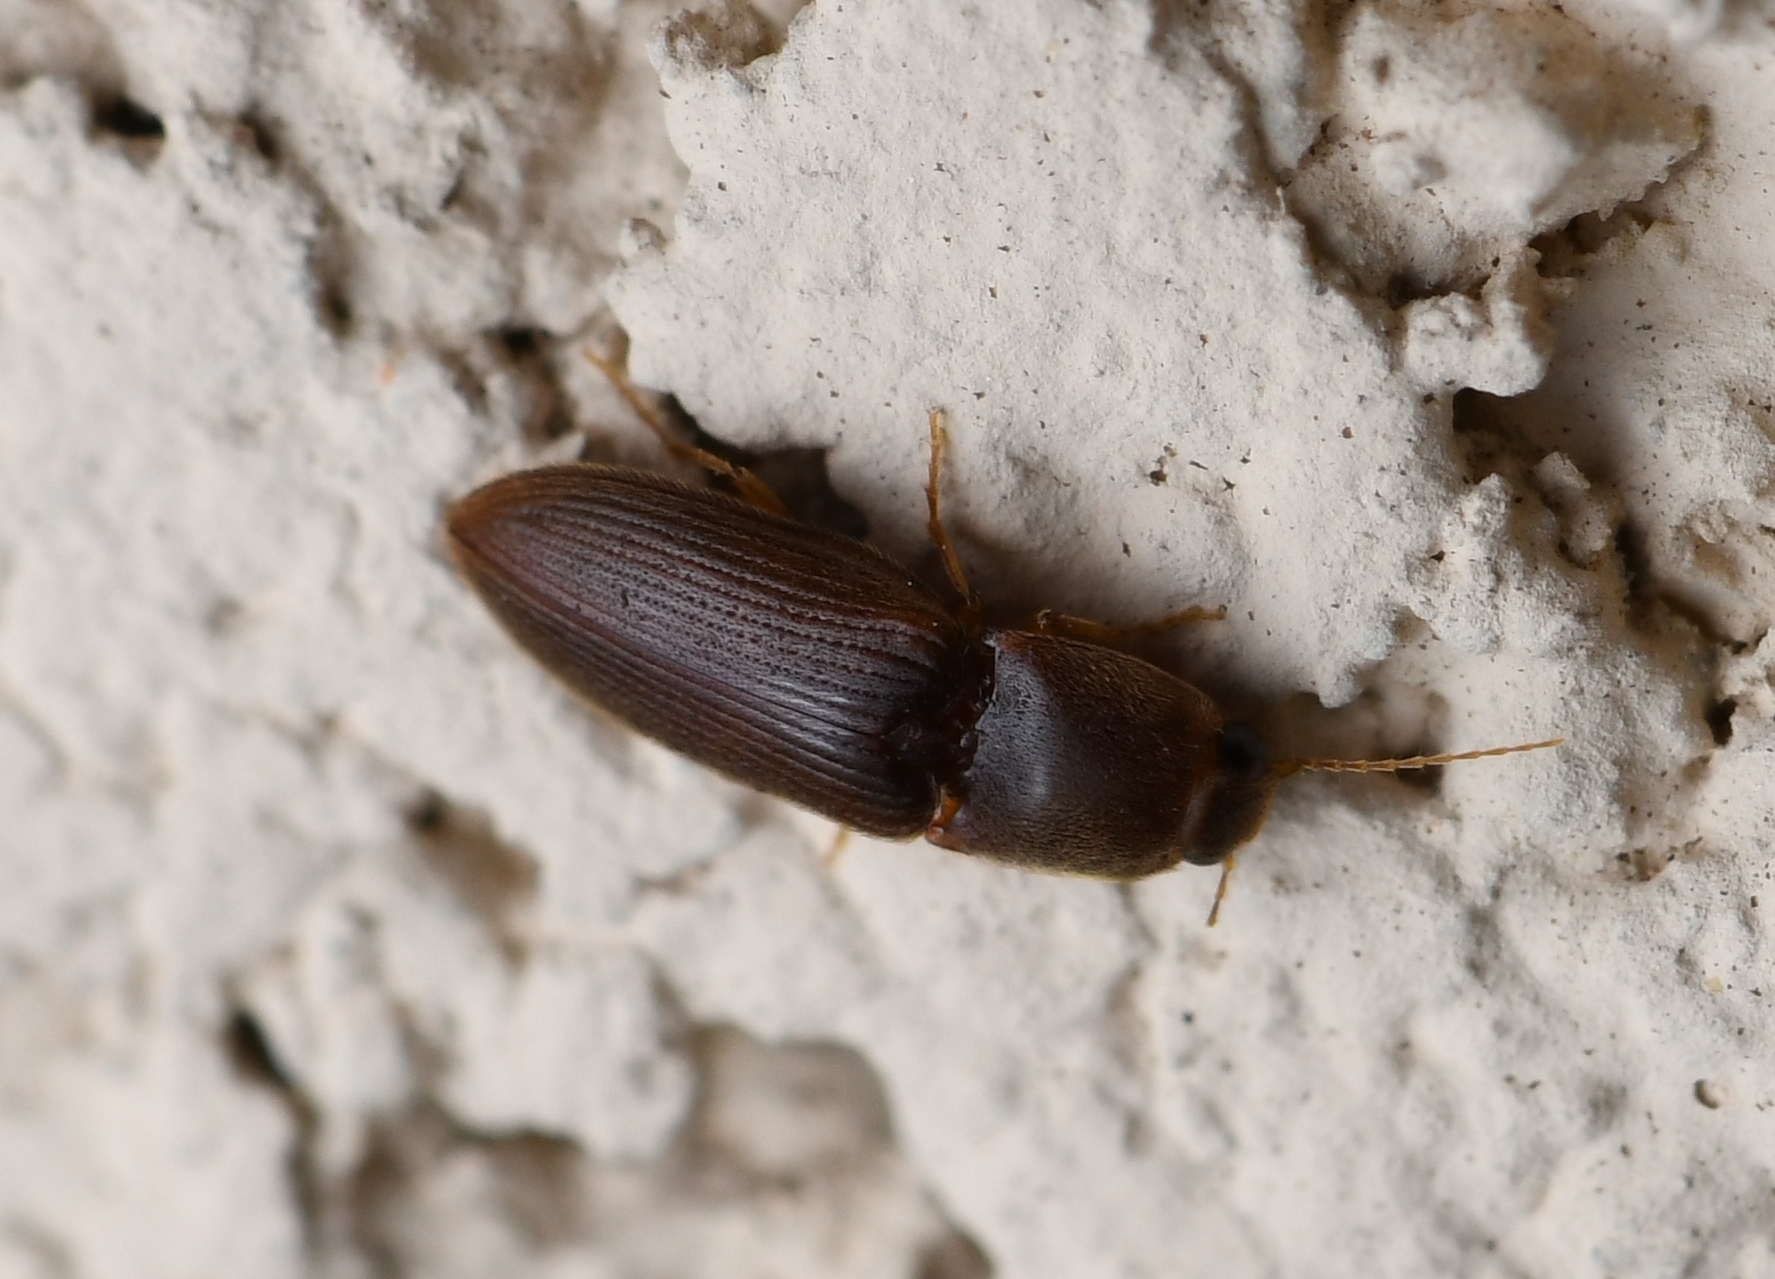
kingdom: Animalia
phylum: Arthropoda
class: Insecta
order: Coleoptera
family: Elateridae
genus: Esthesopus
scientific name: Esthesopus
